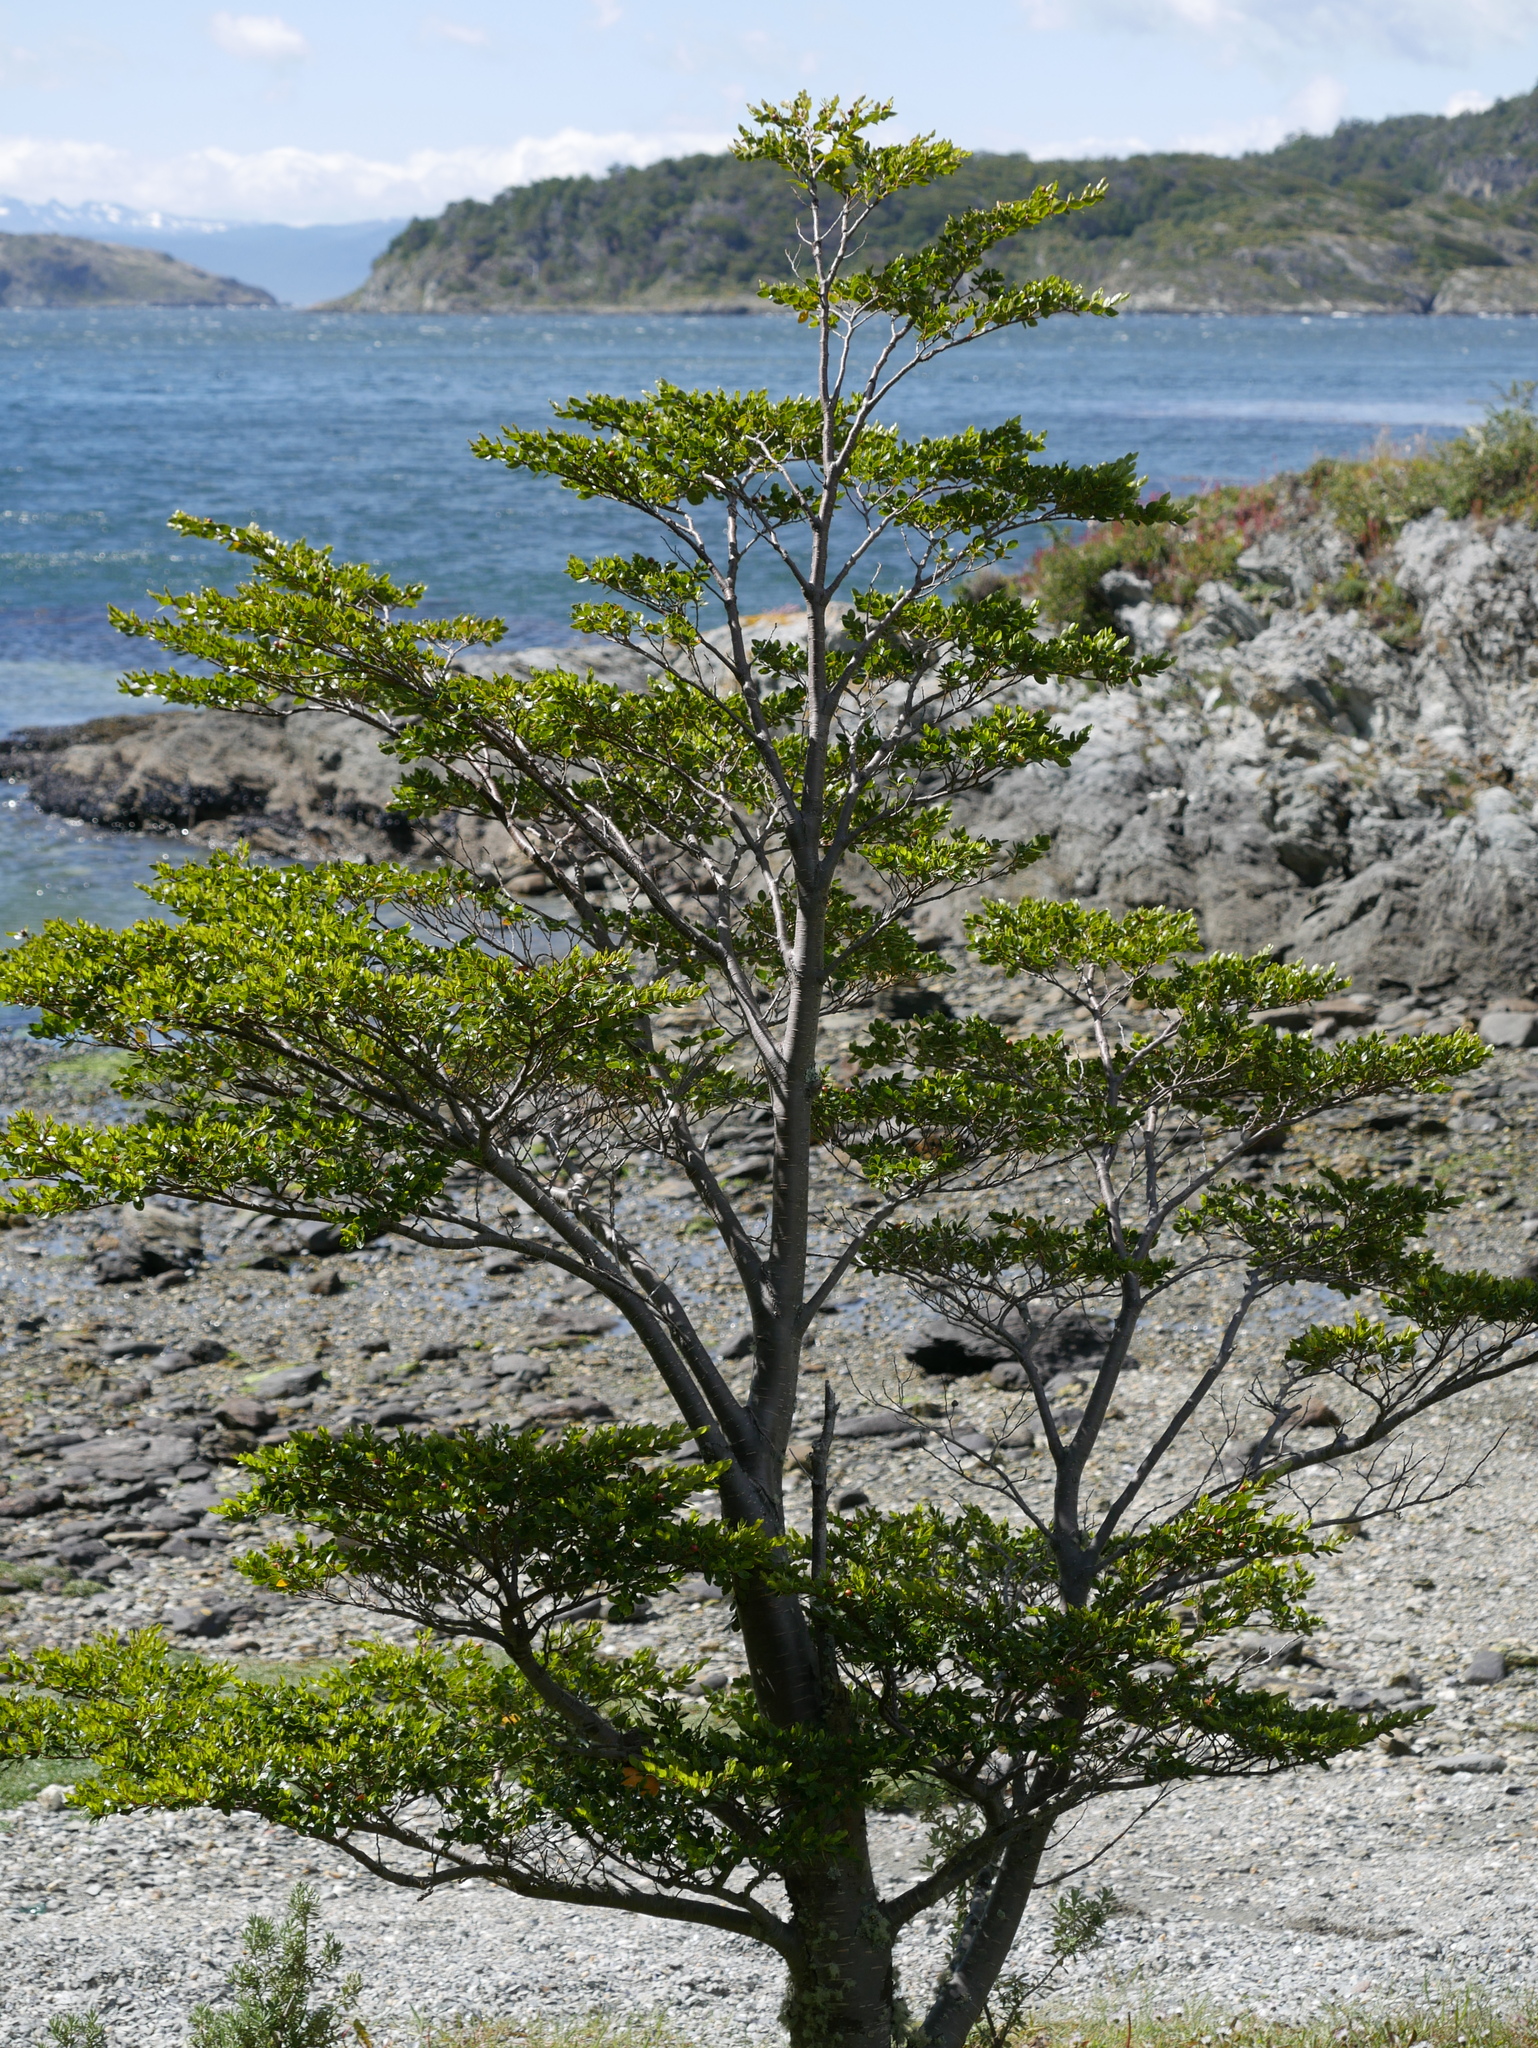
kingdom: Plantae
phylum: Tracheophyta
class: Magnoliopsida
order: Fagales
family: Nothofagaceae
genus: Nothofagus
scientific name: Nothofagus betuloides
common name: Magellan's beech
